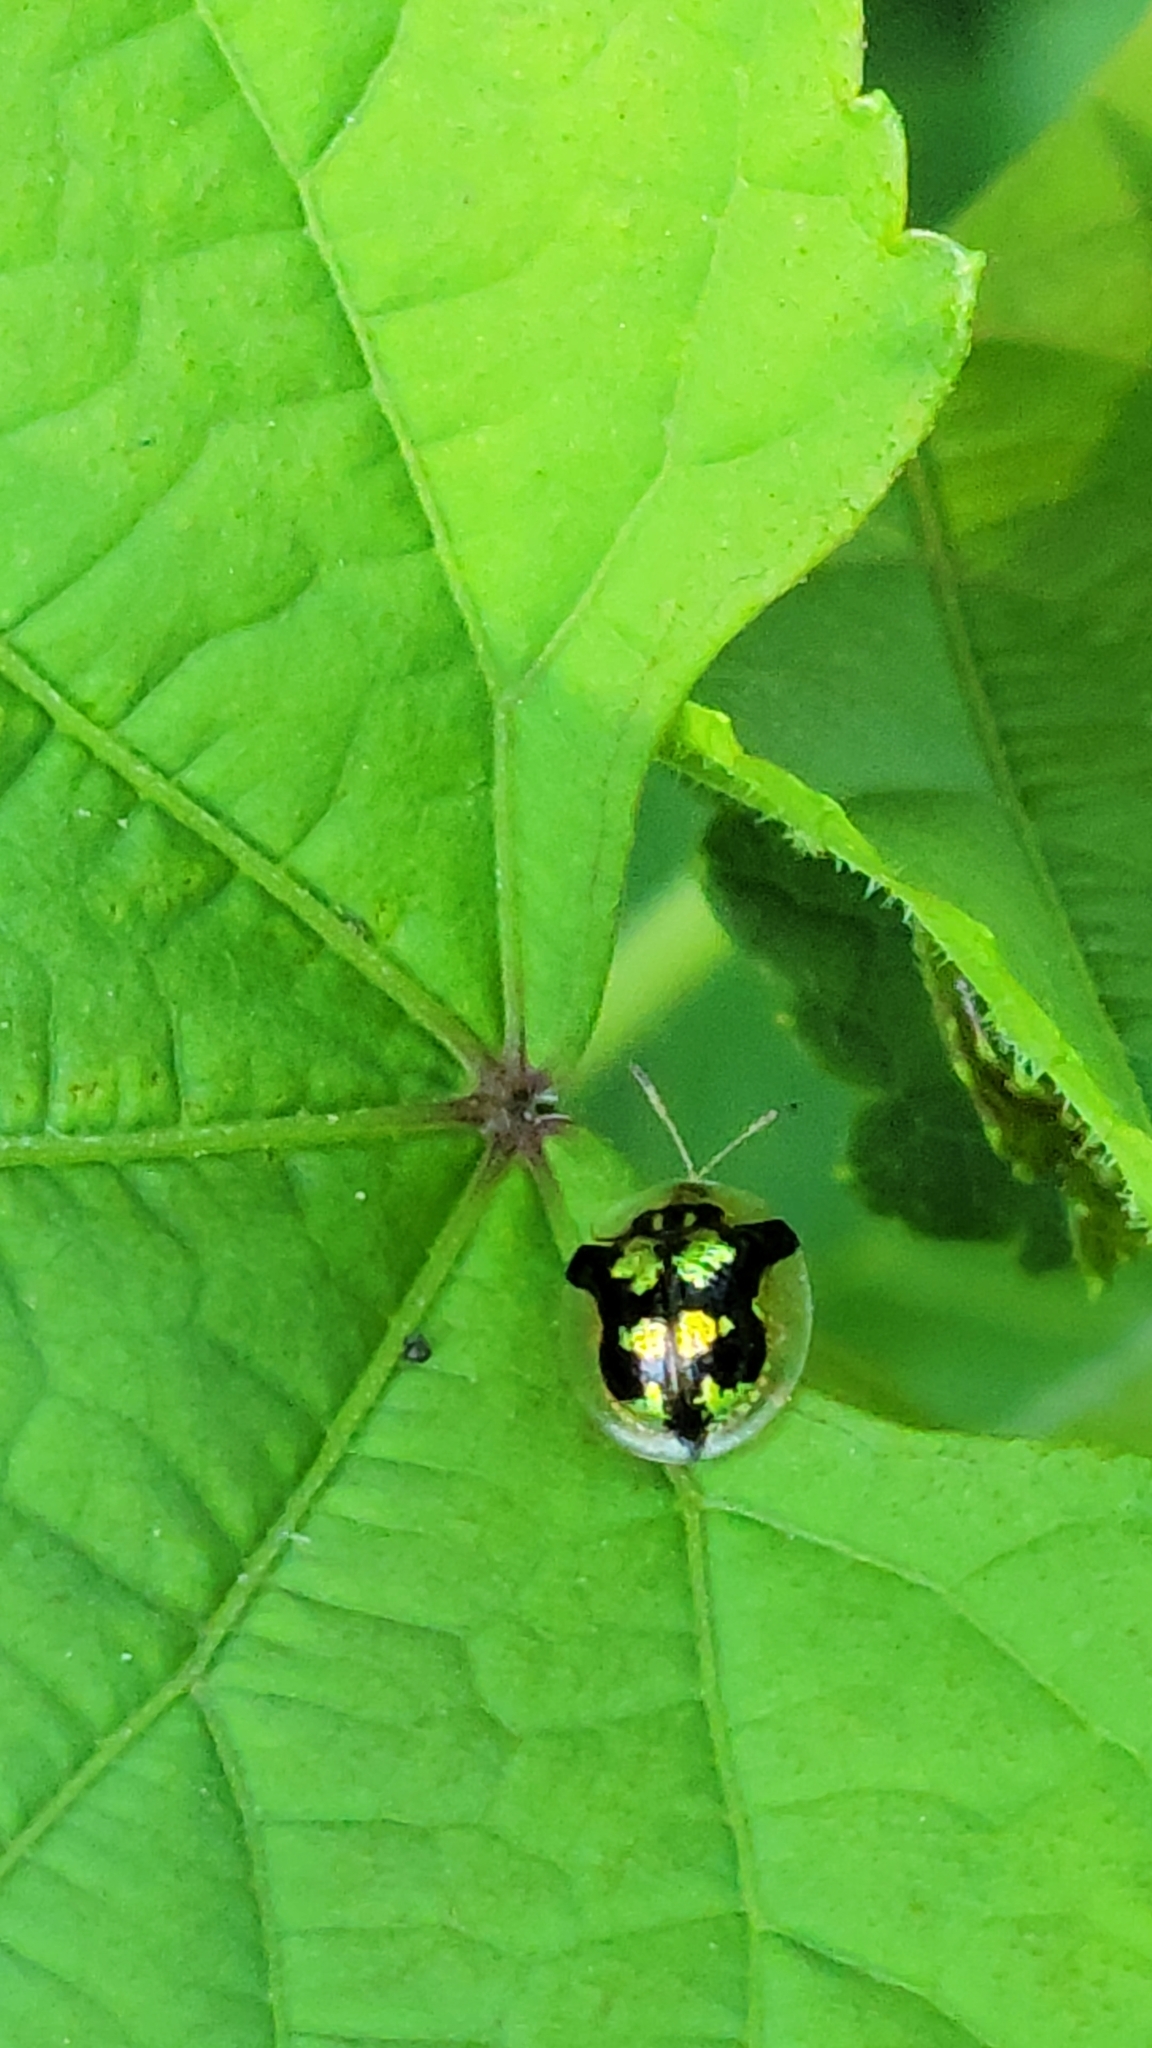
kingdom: Animalia
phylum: Arthropoda
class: Insecta
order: Coleoptera
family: Chrysomelidae
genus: Deloyala
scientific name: Deloyala guttata
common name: Mottled tortoise beetle
